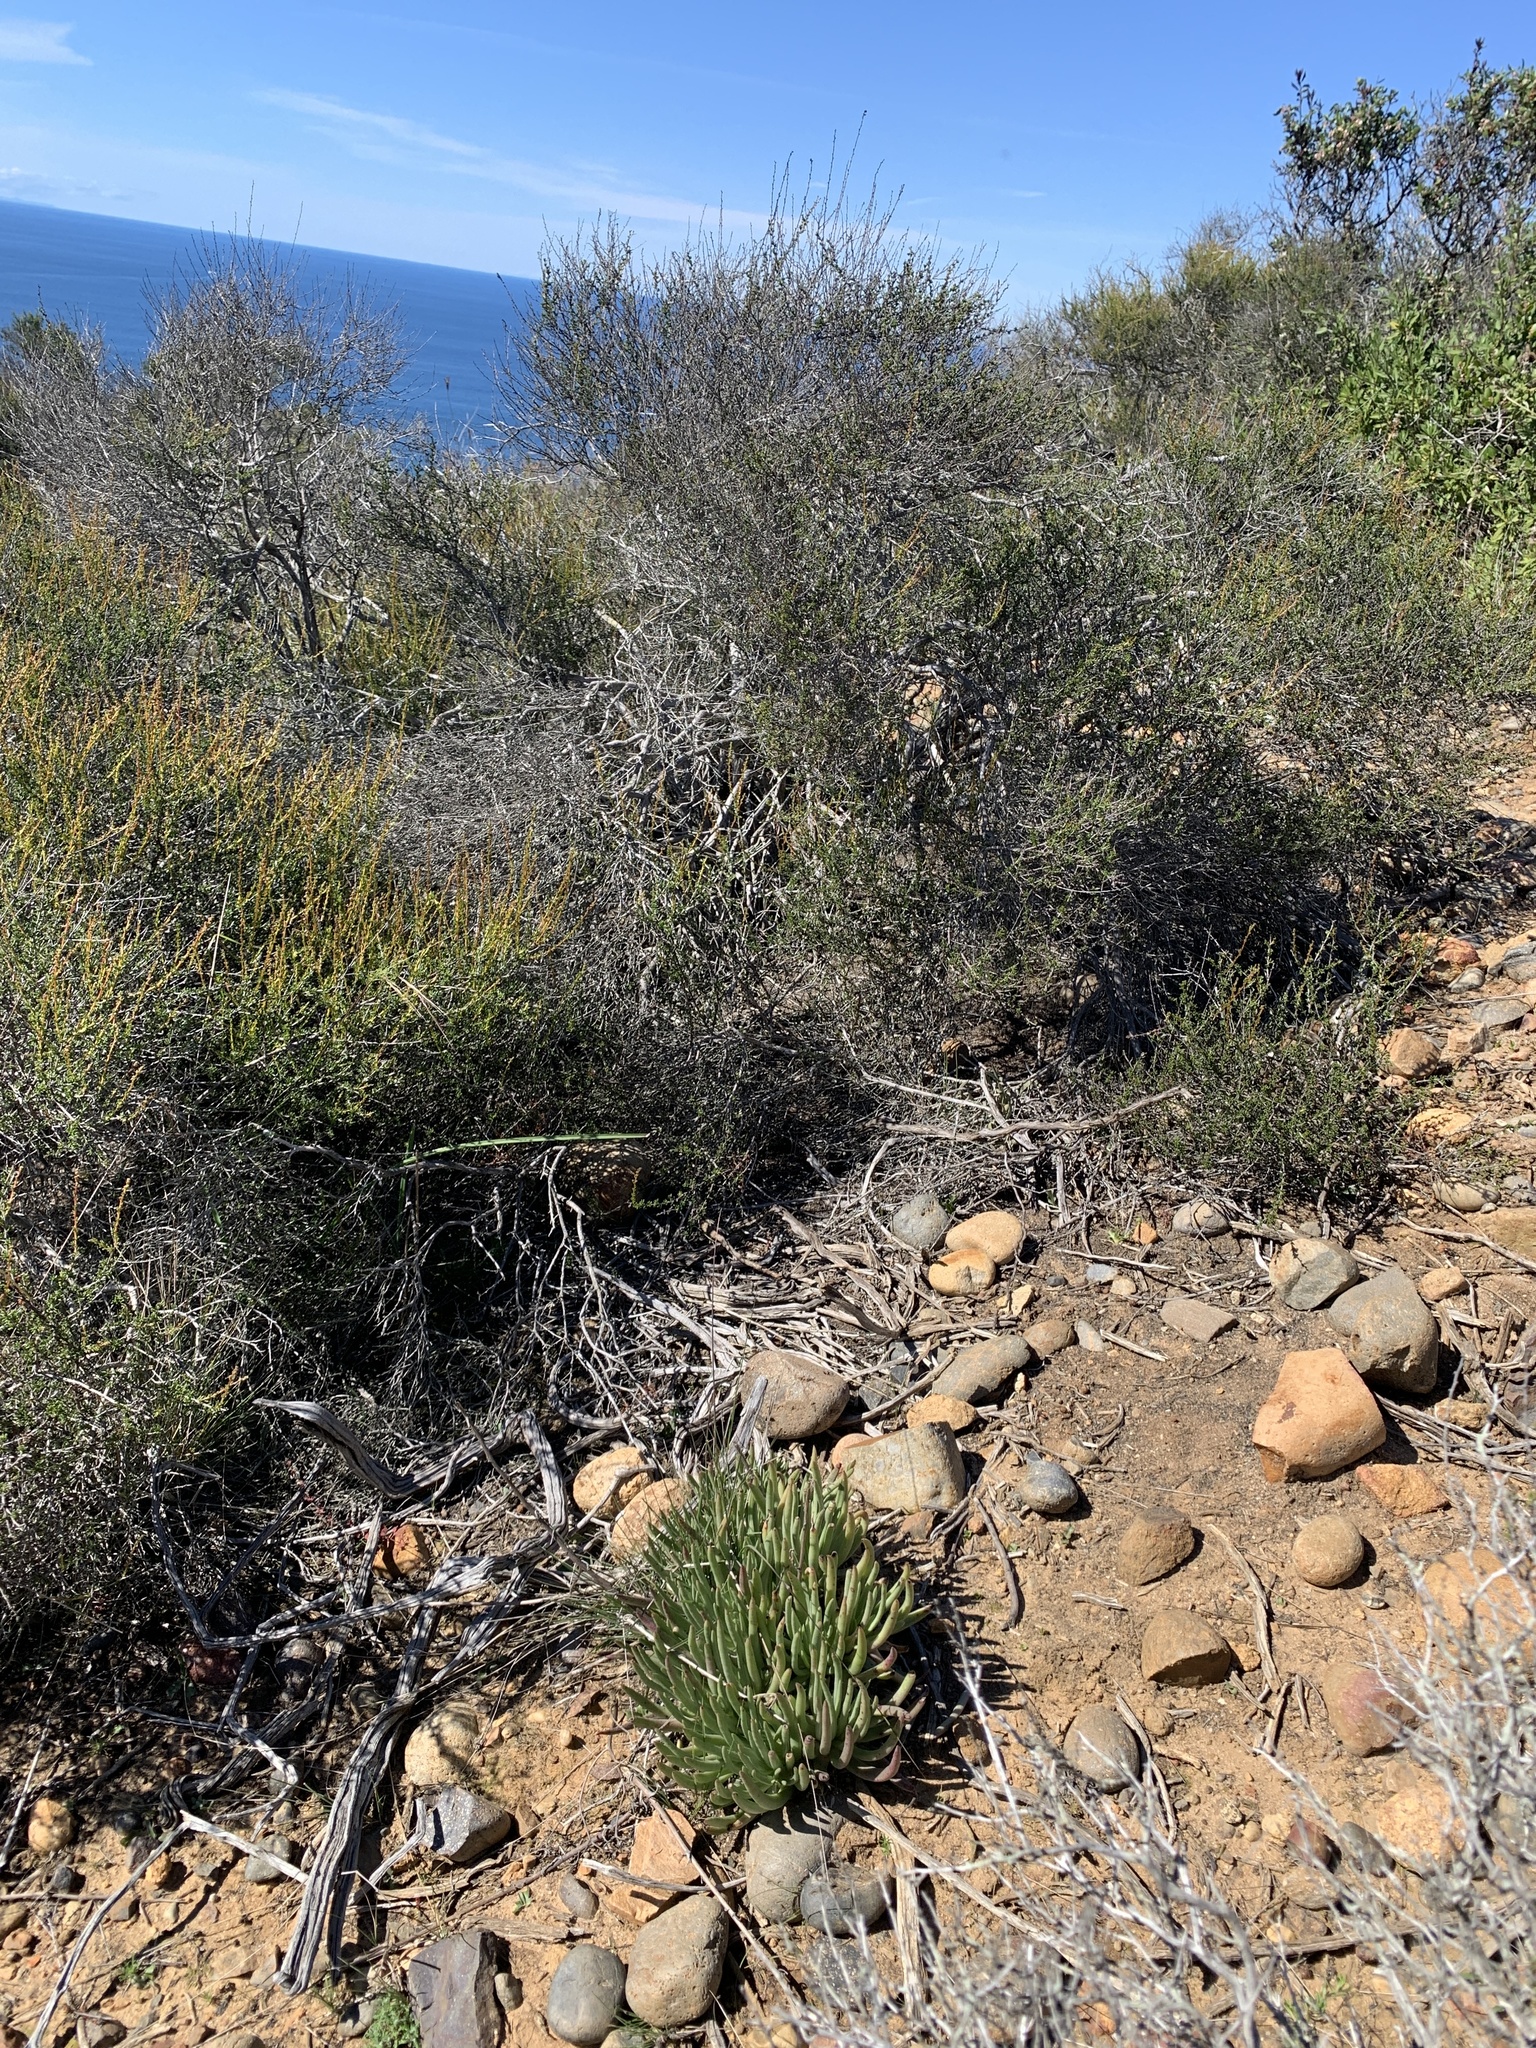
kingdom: Plantae
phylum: Tracheophyta
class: Magnoliopsida
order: Saxifragales
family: Crassulaceae
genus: Dudleya
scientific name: Dudleya edulis
